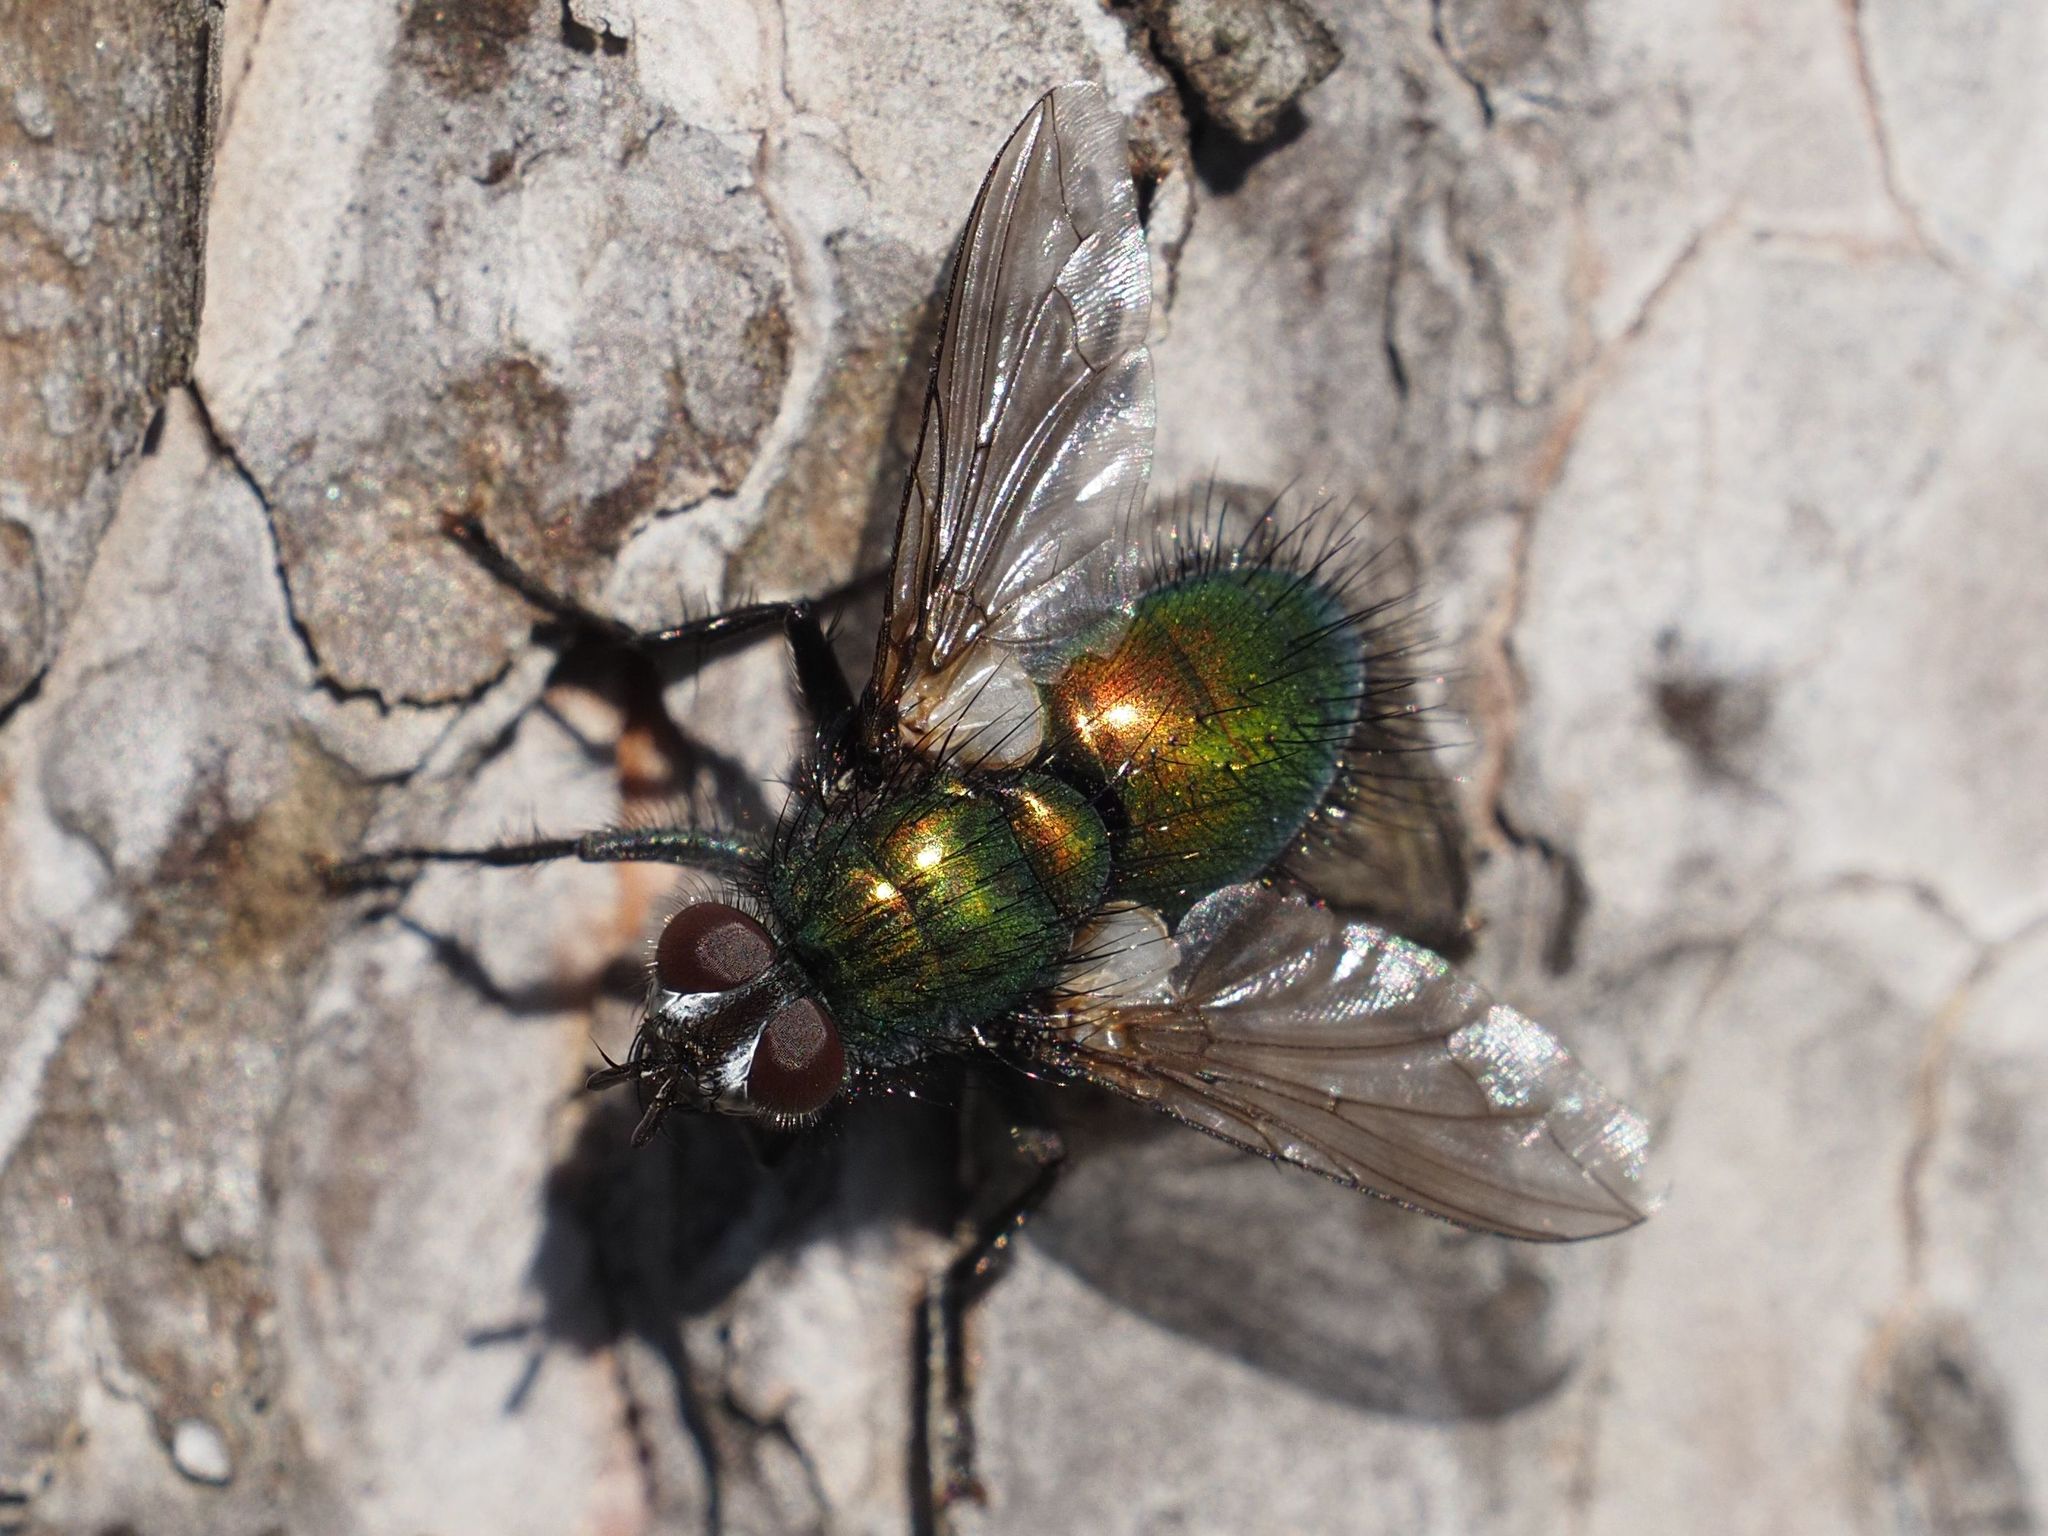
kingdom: Animalia
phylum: Arthropoda
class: Insecta
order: Diptera
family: Tachinidae
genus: Gymnocheta
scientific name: Gymnocheta viridis
